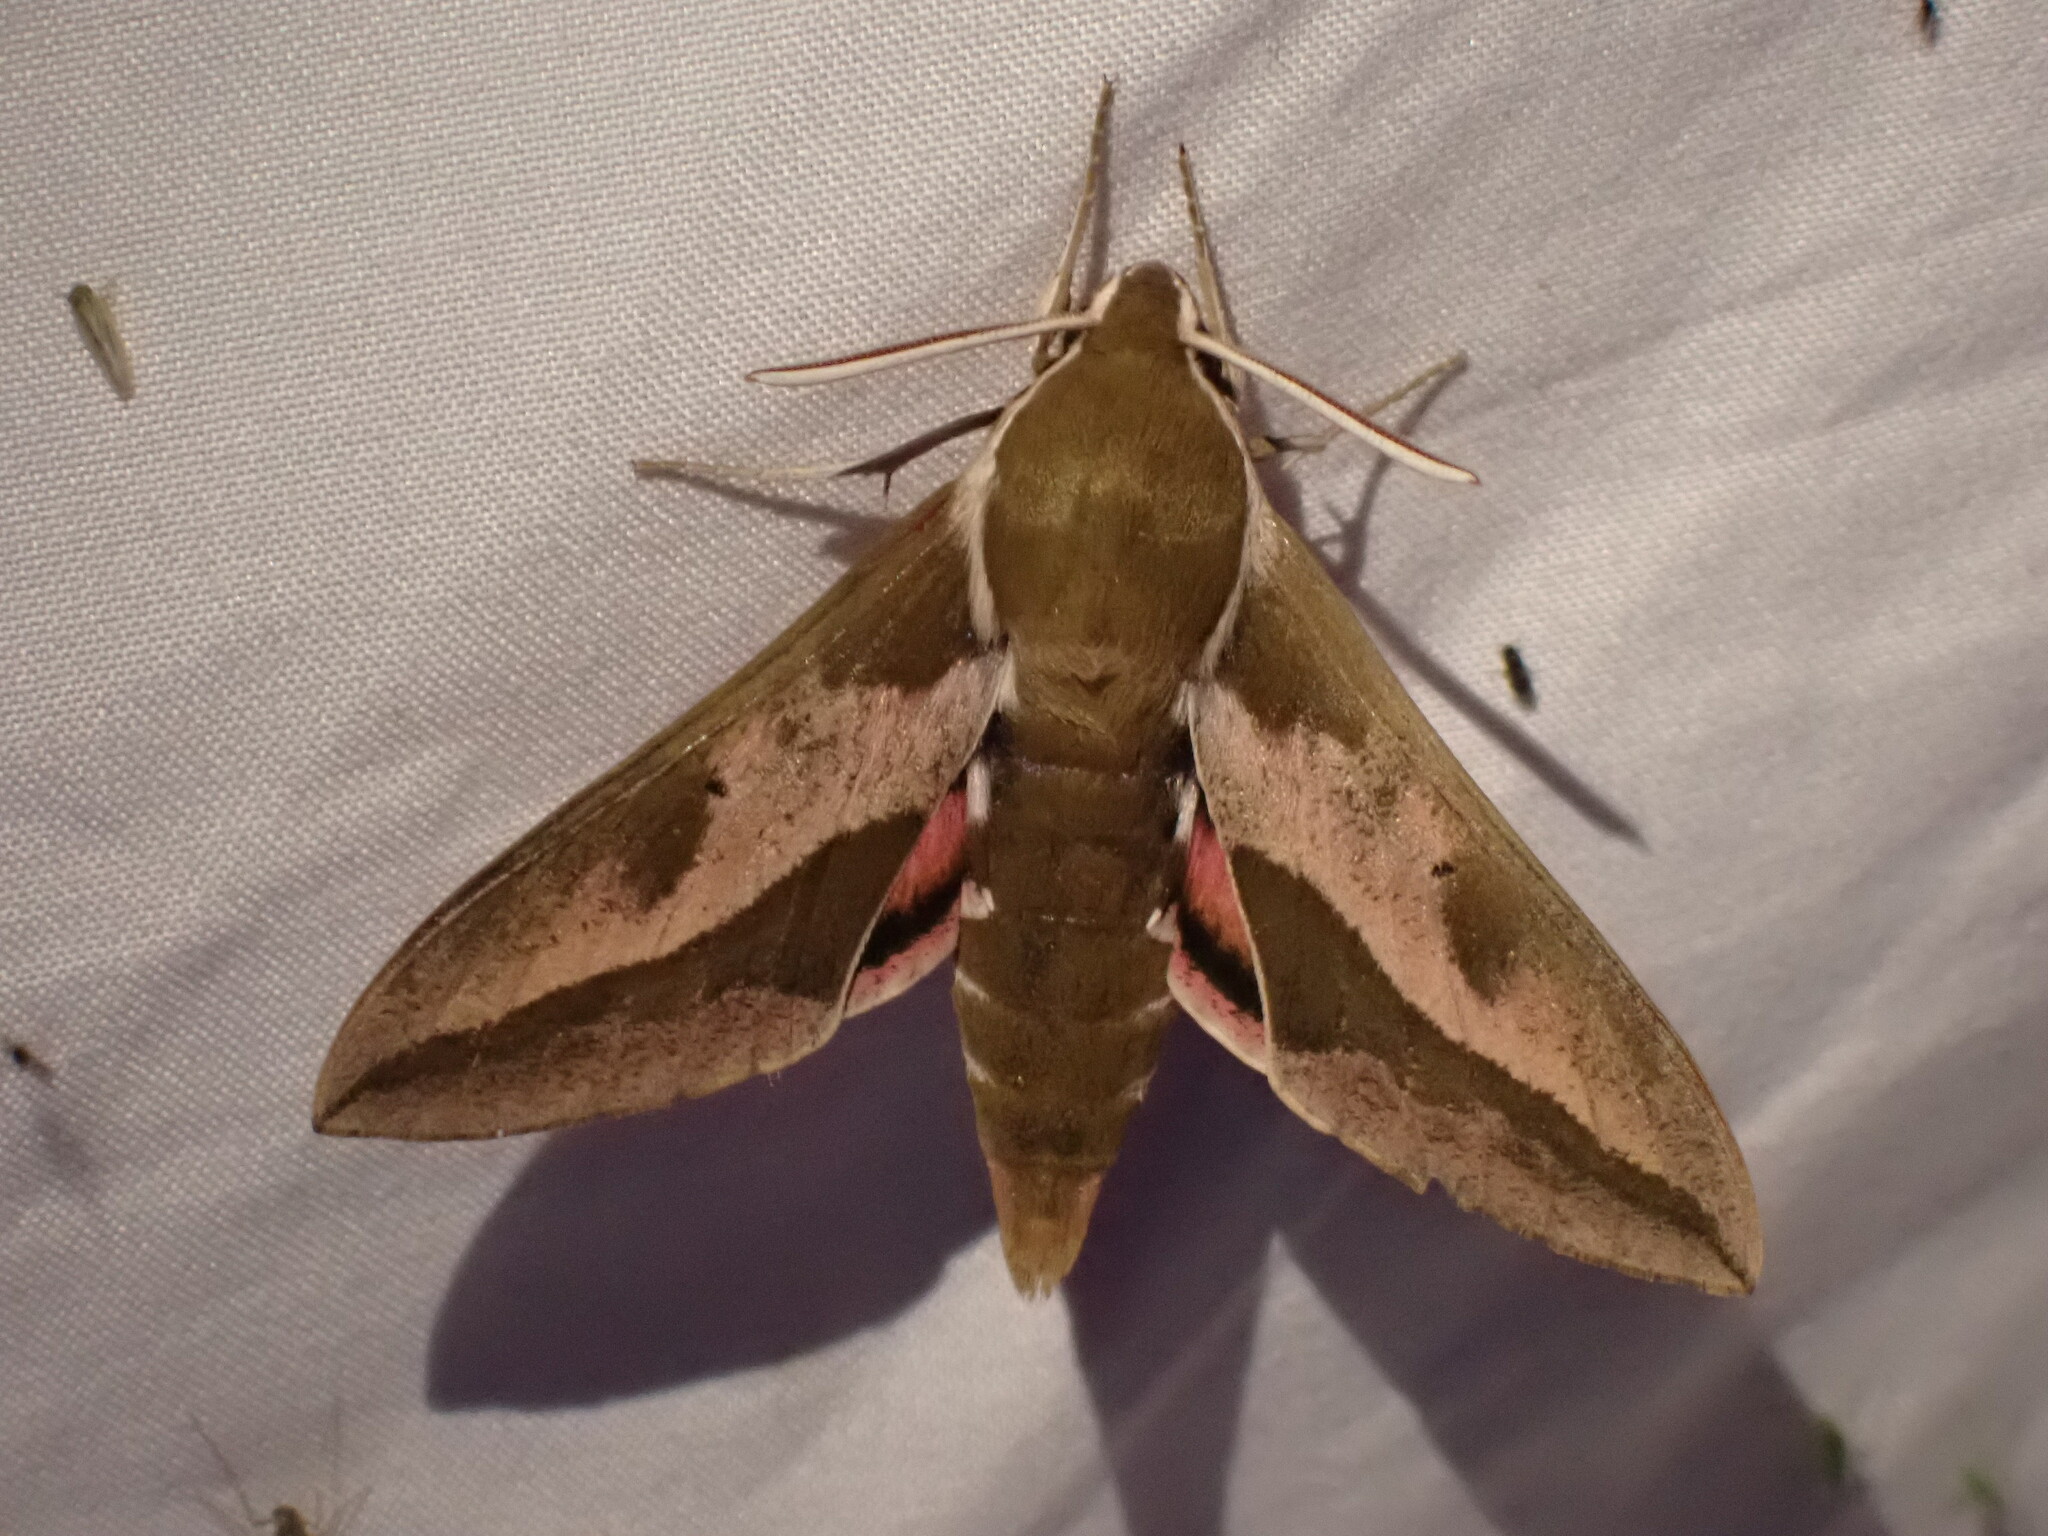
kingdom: Animalia
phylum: Arthropoda
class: Insecta
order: Lepidoptera
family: Sphingidae
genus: Hyles
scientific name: Hyles euphorbiae
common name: Spurge hawk-moth
